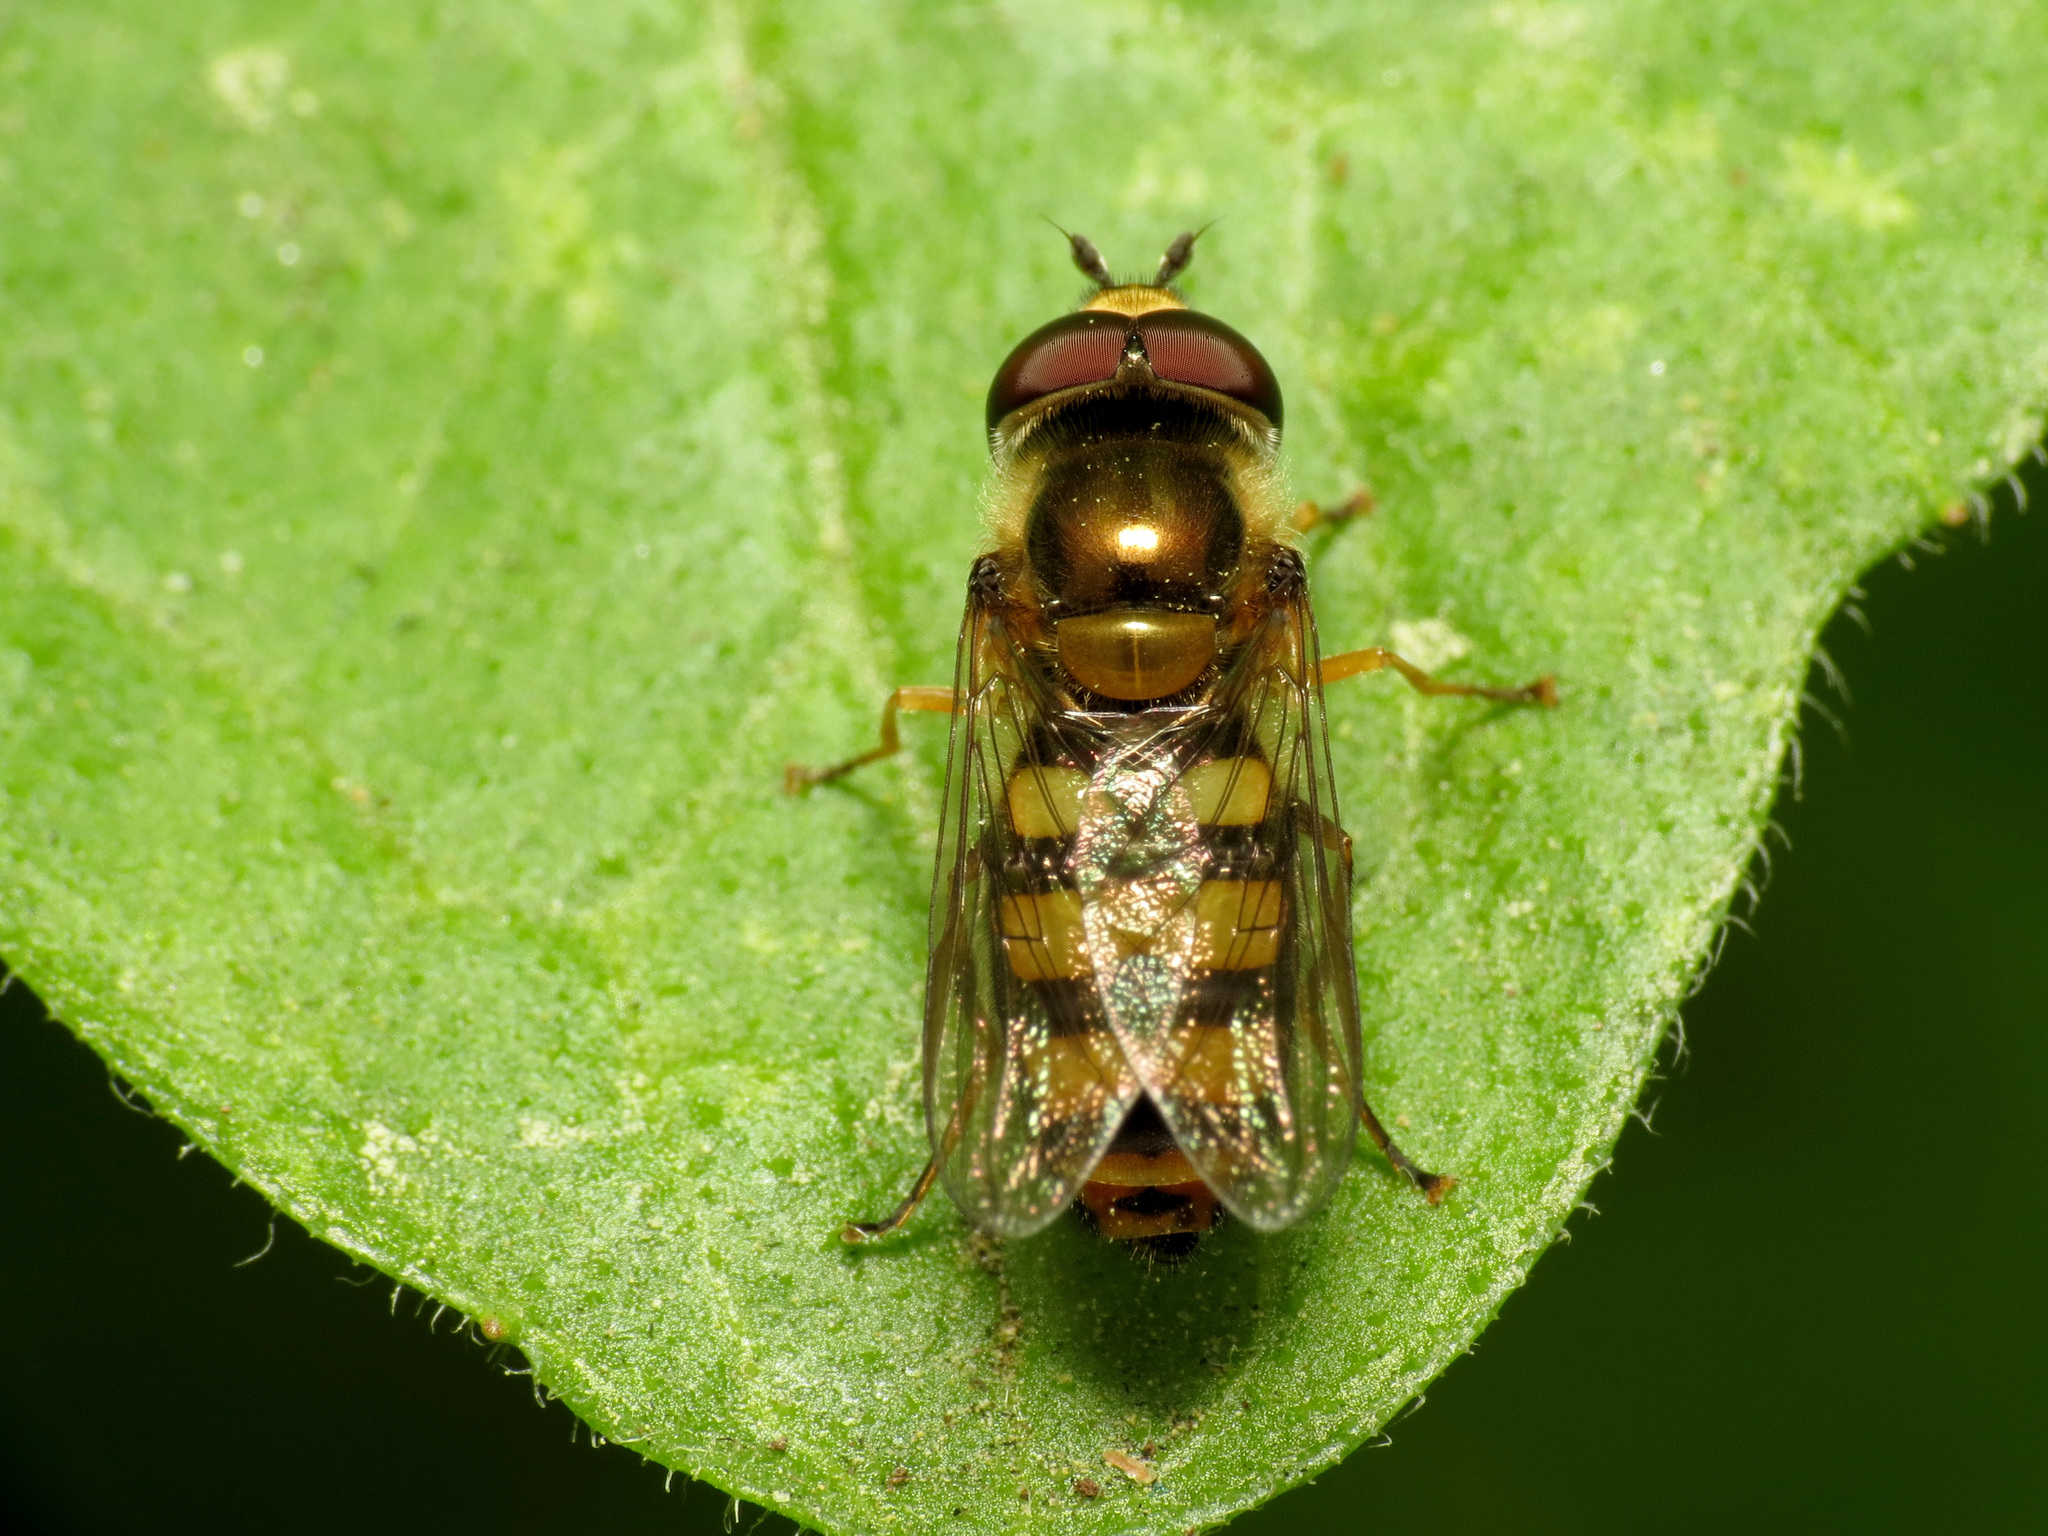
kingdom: Animalia
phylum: Arthropoda
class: Insecta
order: Diptera
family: Syrphidae
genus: Eupeodes
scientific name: Eupeodes
